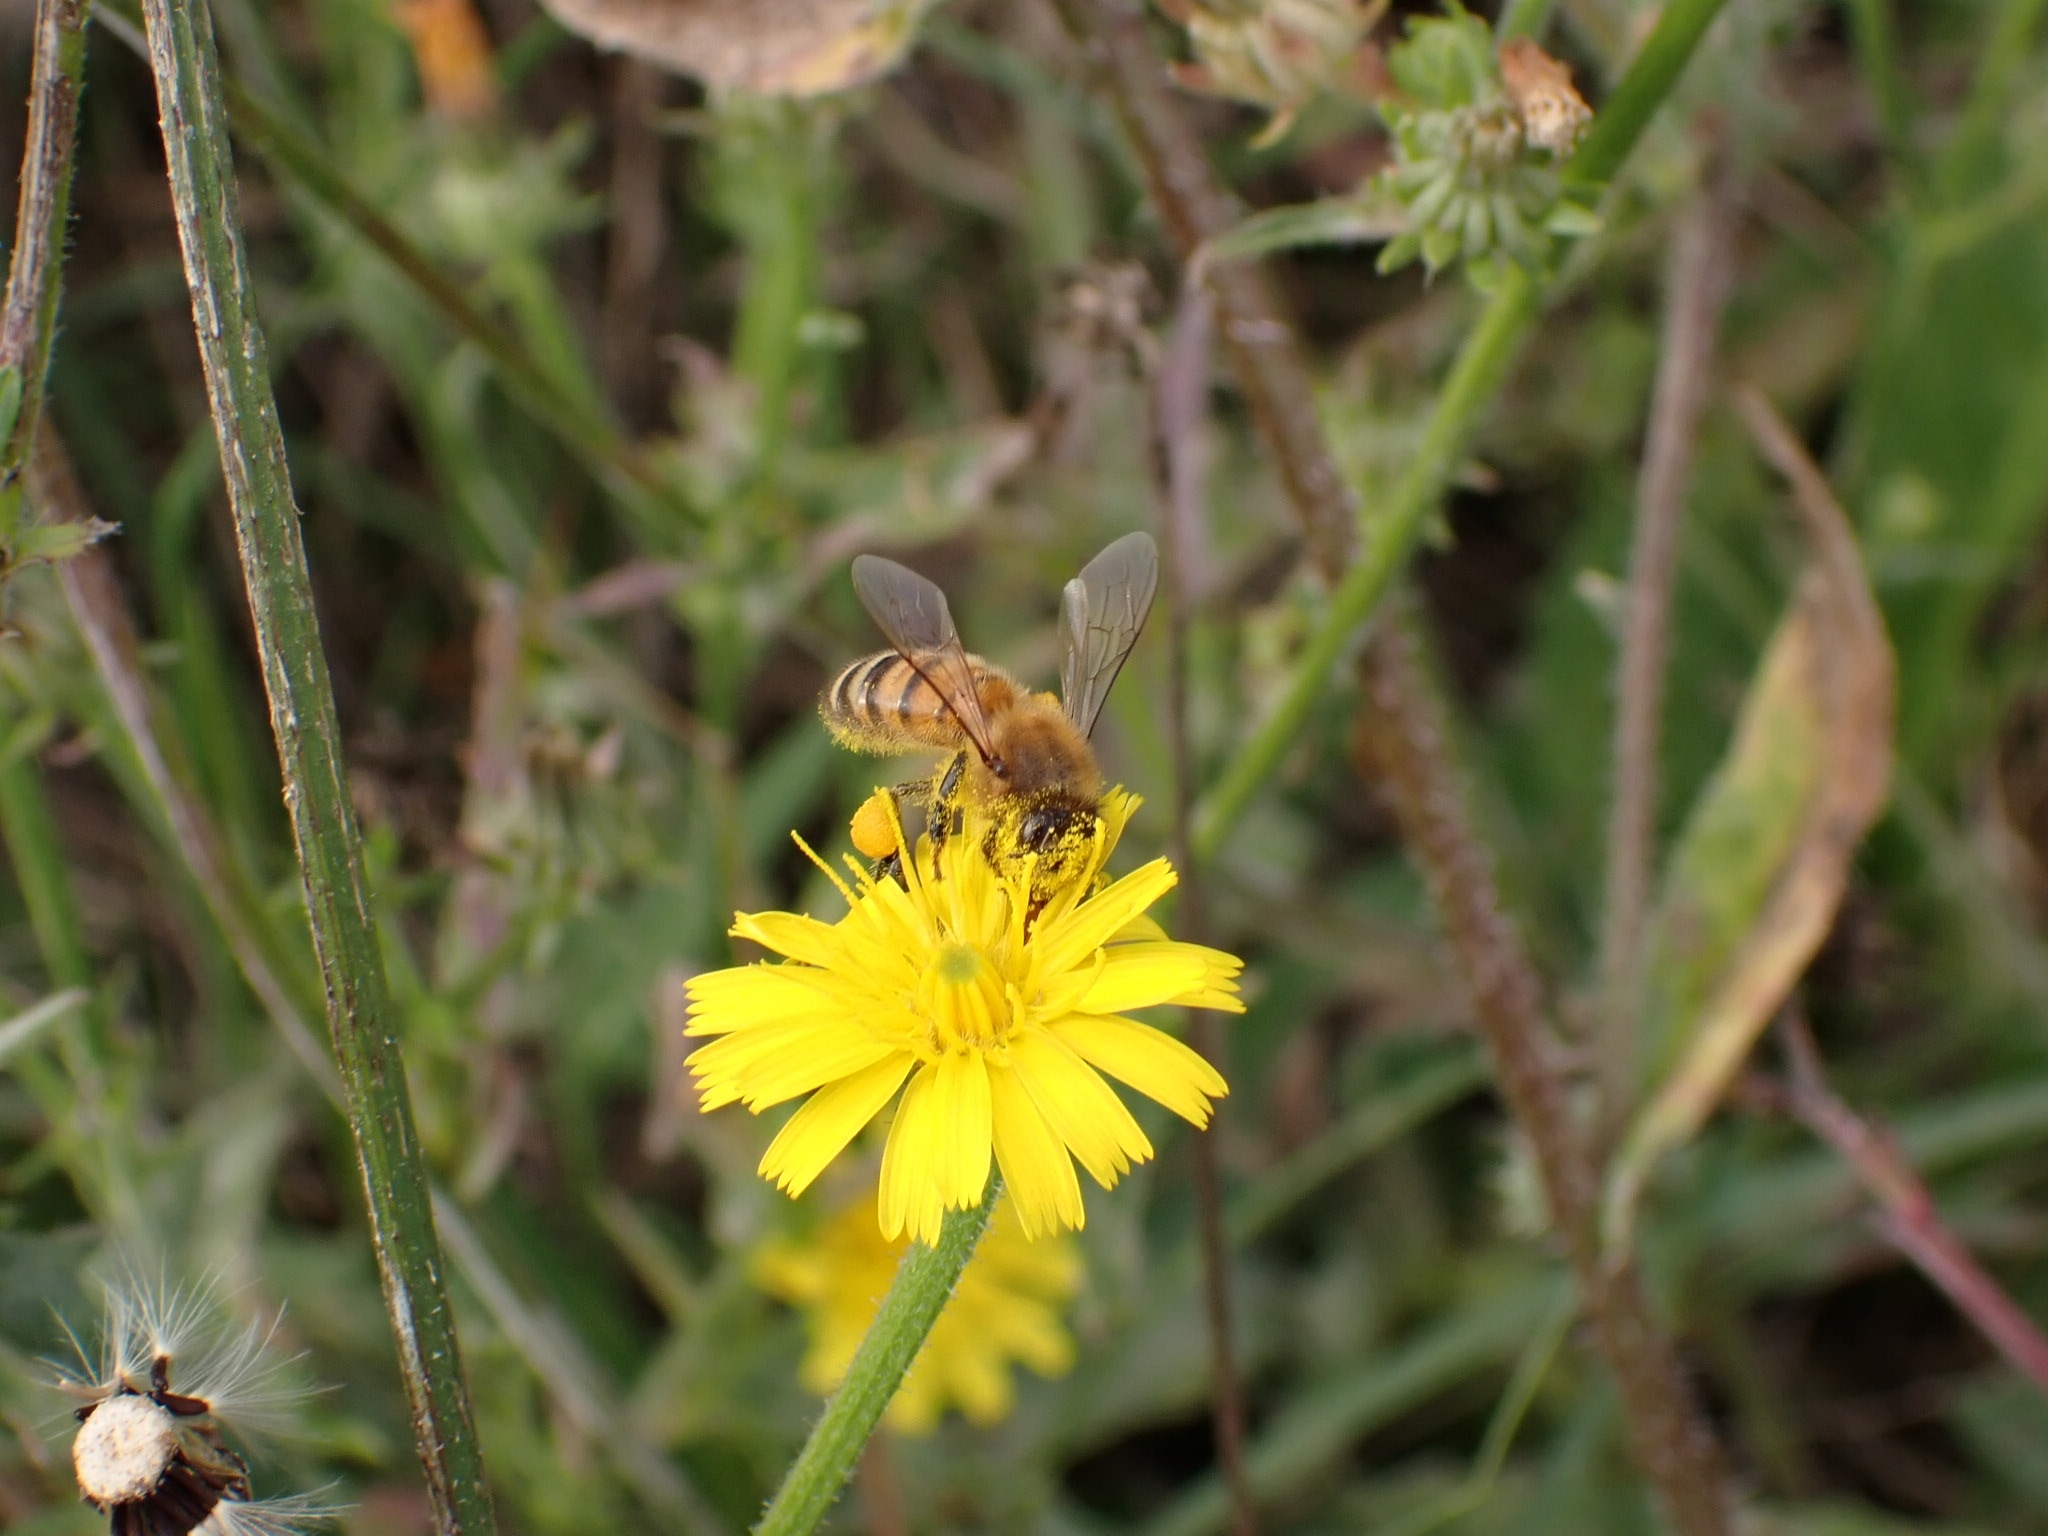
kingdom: Animalia
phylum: Arthropoda
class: Insecta
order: Hymenoptera
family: Apidae
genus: Apis
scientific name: Apis mellifera
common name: Honey bee
